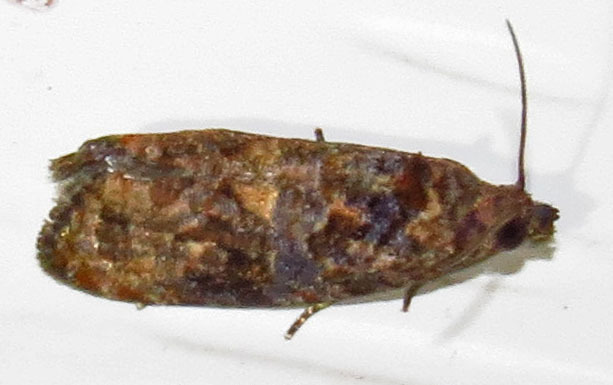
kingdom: Animalia
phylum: Arthropoda
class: Insecta
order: Lepidoptera
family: Tortricidae
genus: Endothenia
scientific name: Endothenia hebesana
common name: Verbena bud moth
